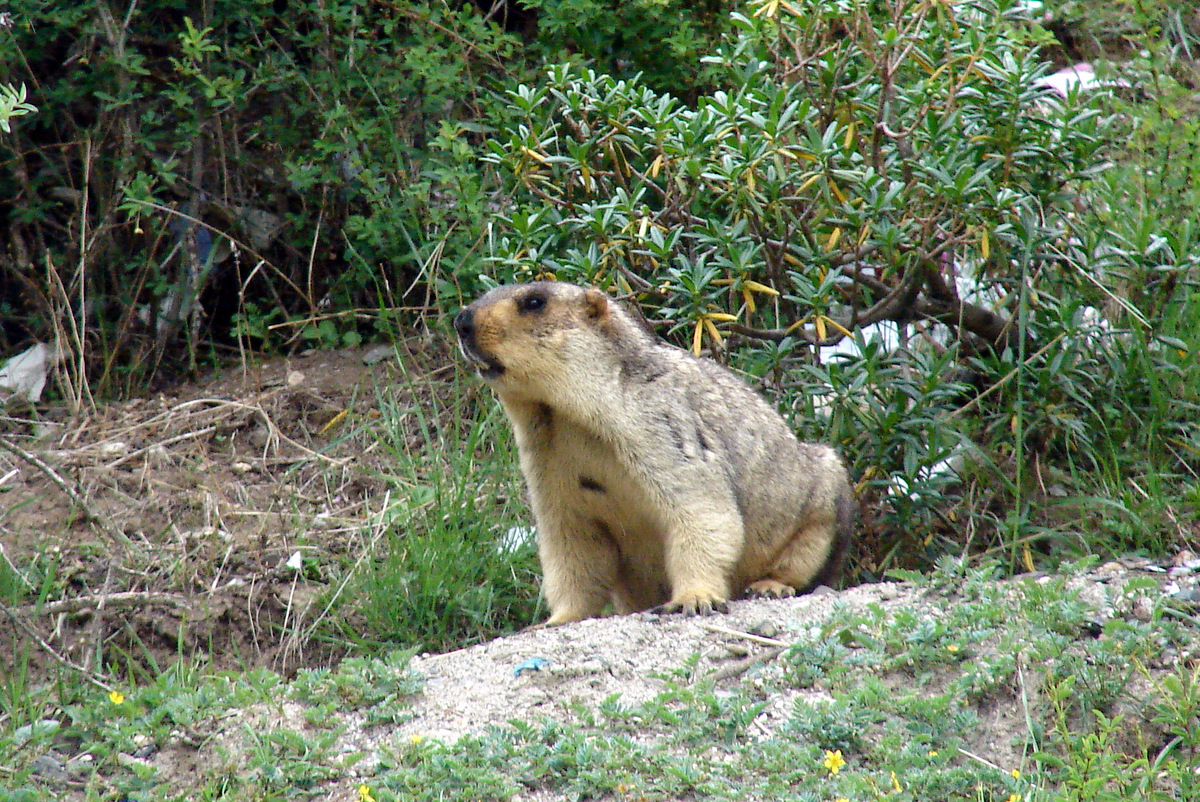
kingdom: Animalia
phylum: Chordata
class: Mammalia
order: Rodentia
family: Sciuridae
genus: Marmota
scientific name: Marmota himalayana
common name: Himalayan marmot
